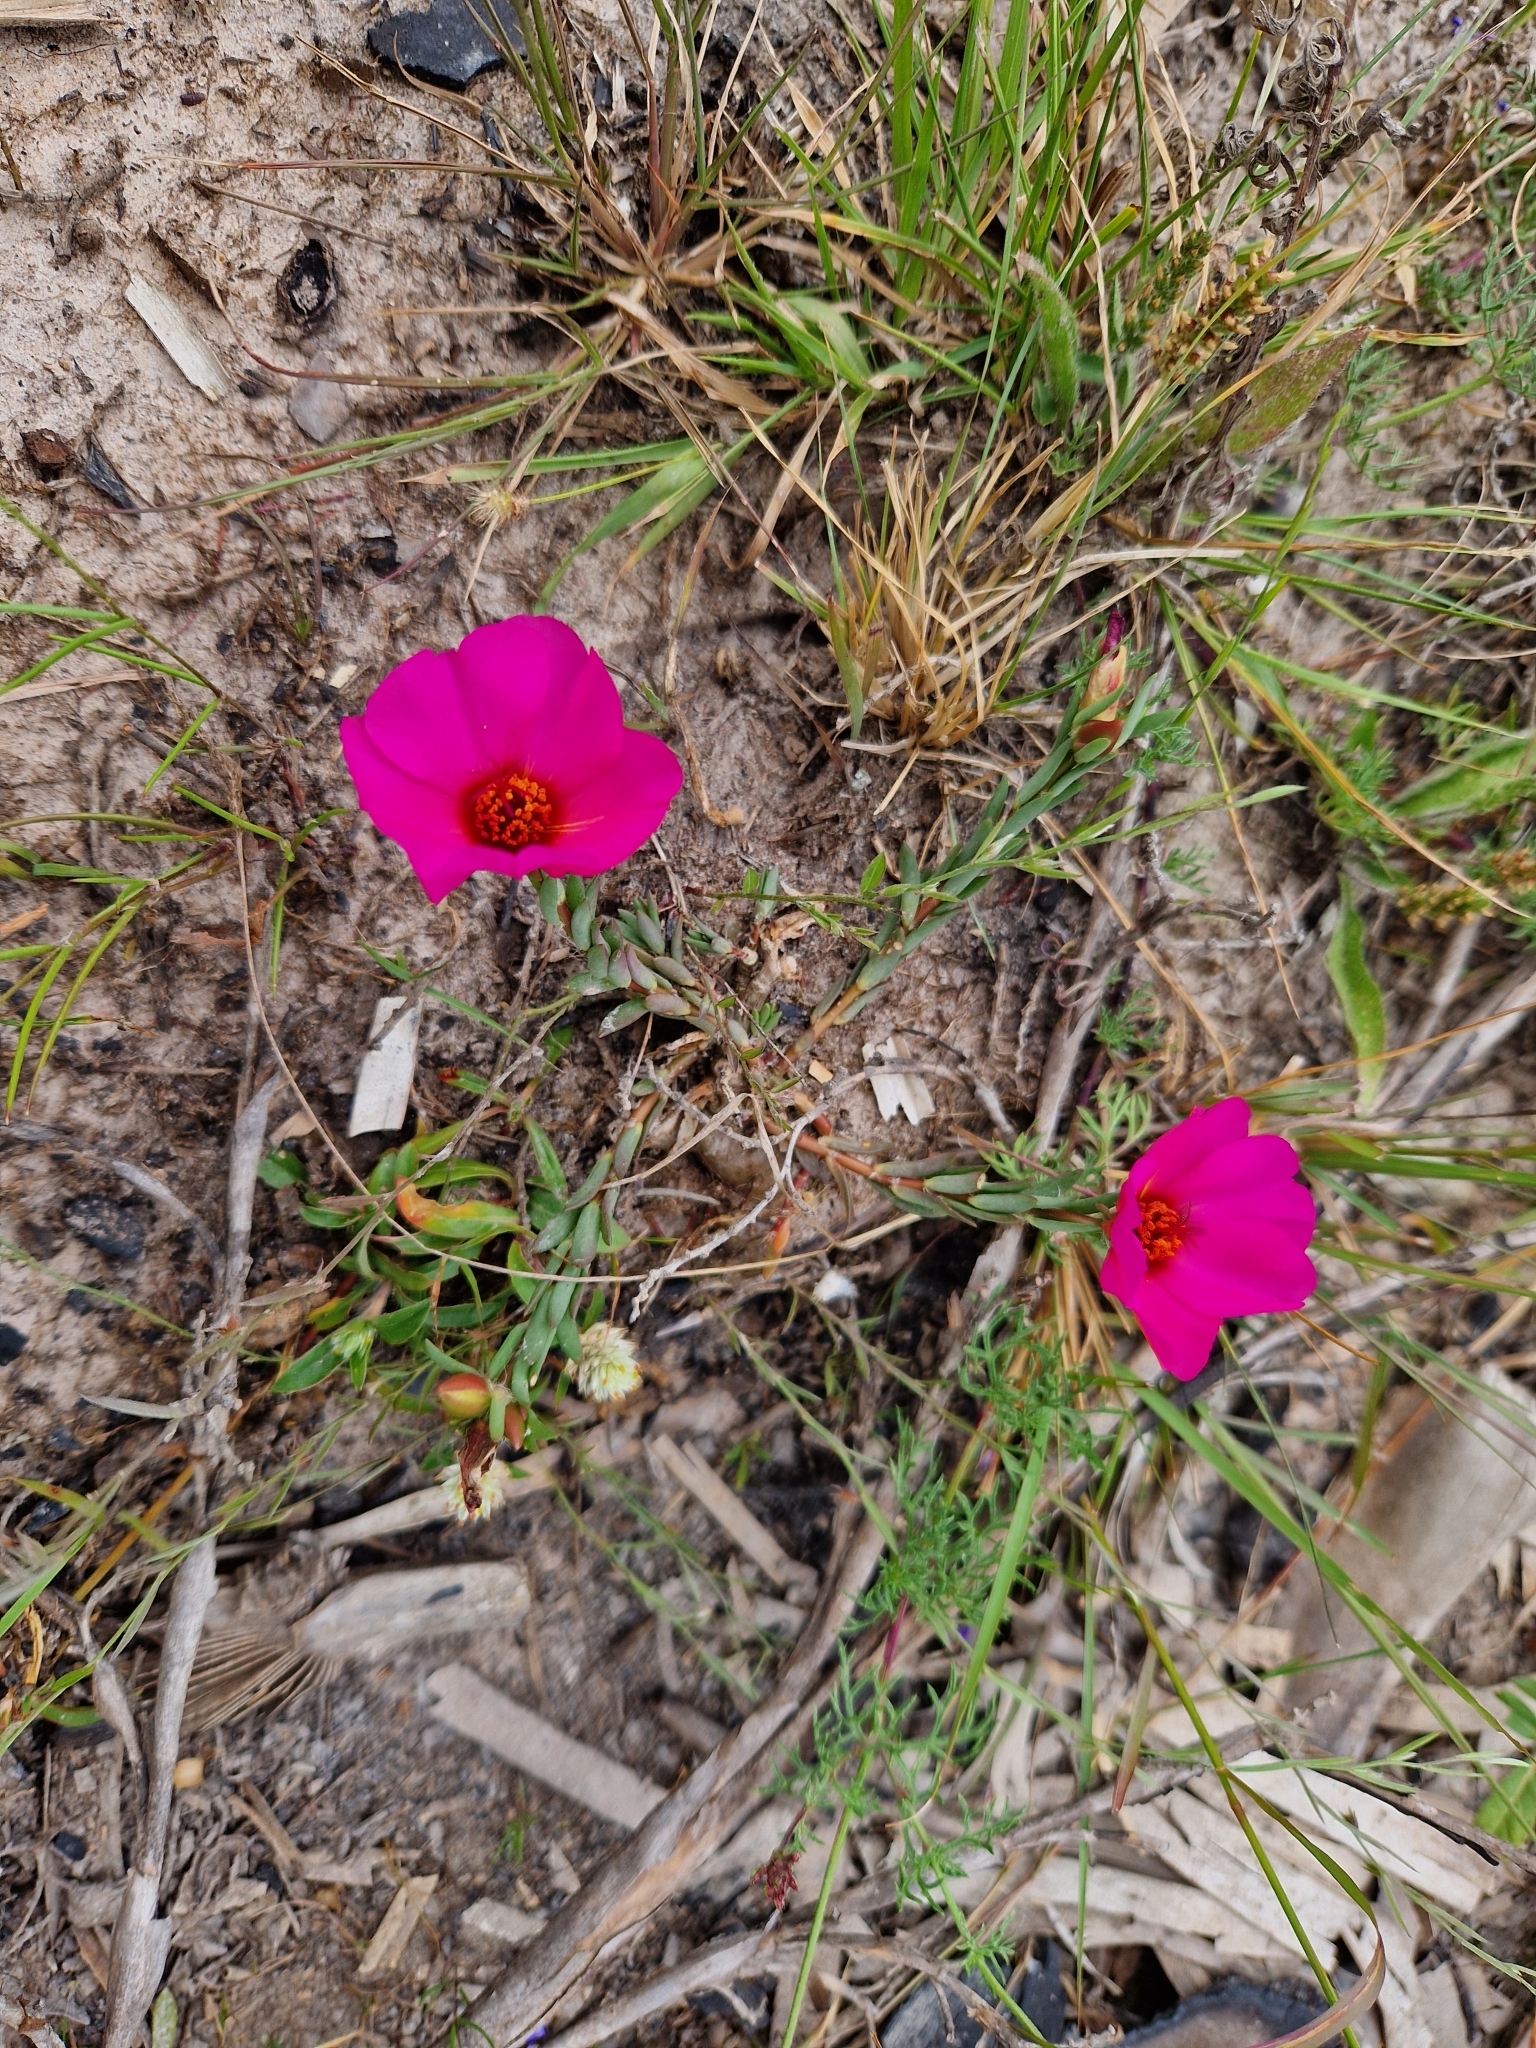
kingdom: Plantae
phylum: Tracheophyta
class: Magnoliopsida
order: Caryophyllales
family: Portulacaceae
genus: Portulaca
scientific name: Portulaca grandiflora
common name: Moss-rose
